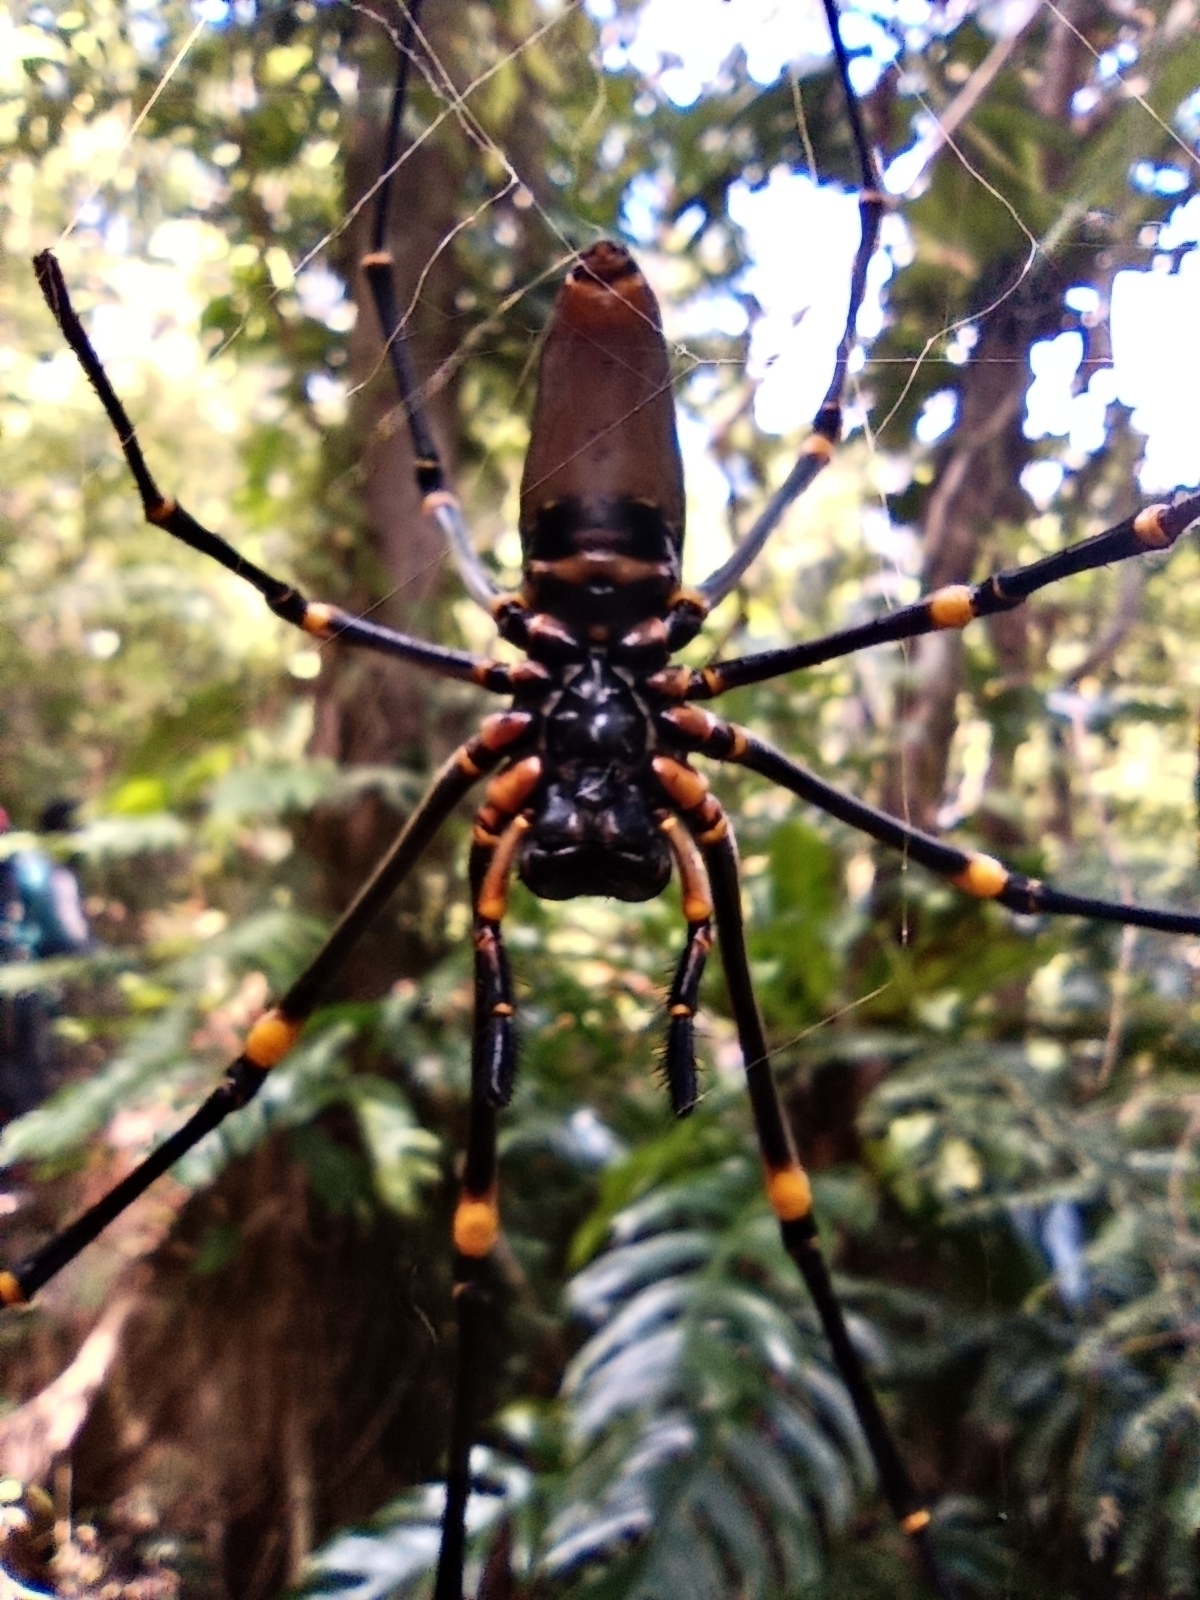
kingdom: Animalia
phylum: Arthropoda
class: Arachnida
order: Araneae
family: Araneidae
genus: Nephila
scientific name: Nephila pilipes
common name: Giant golden orb weaver
